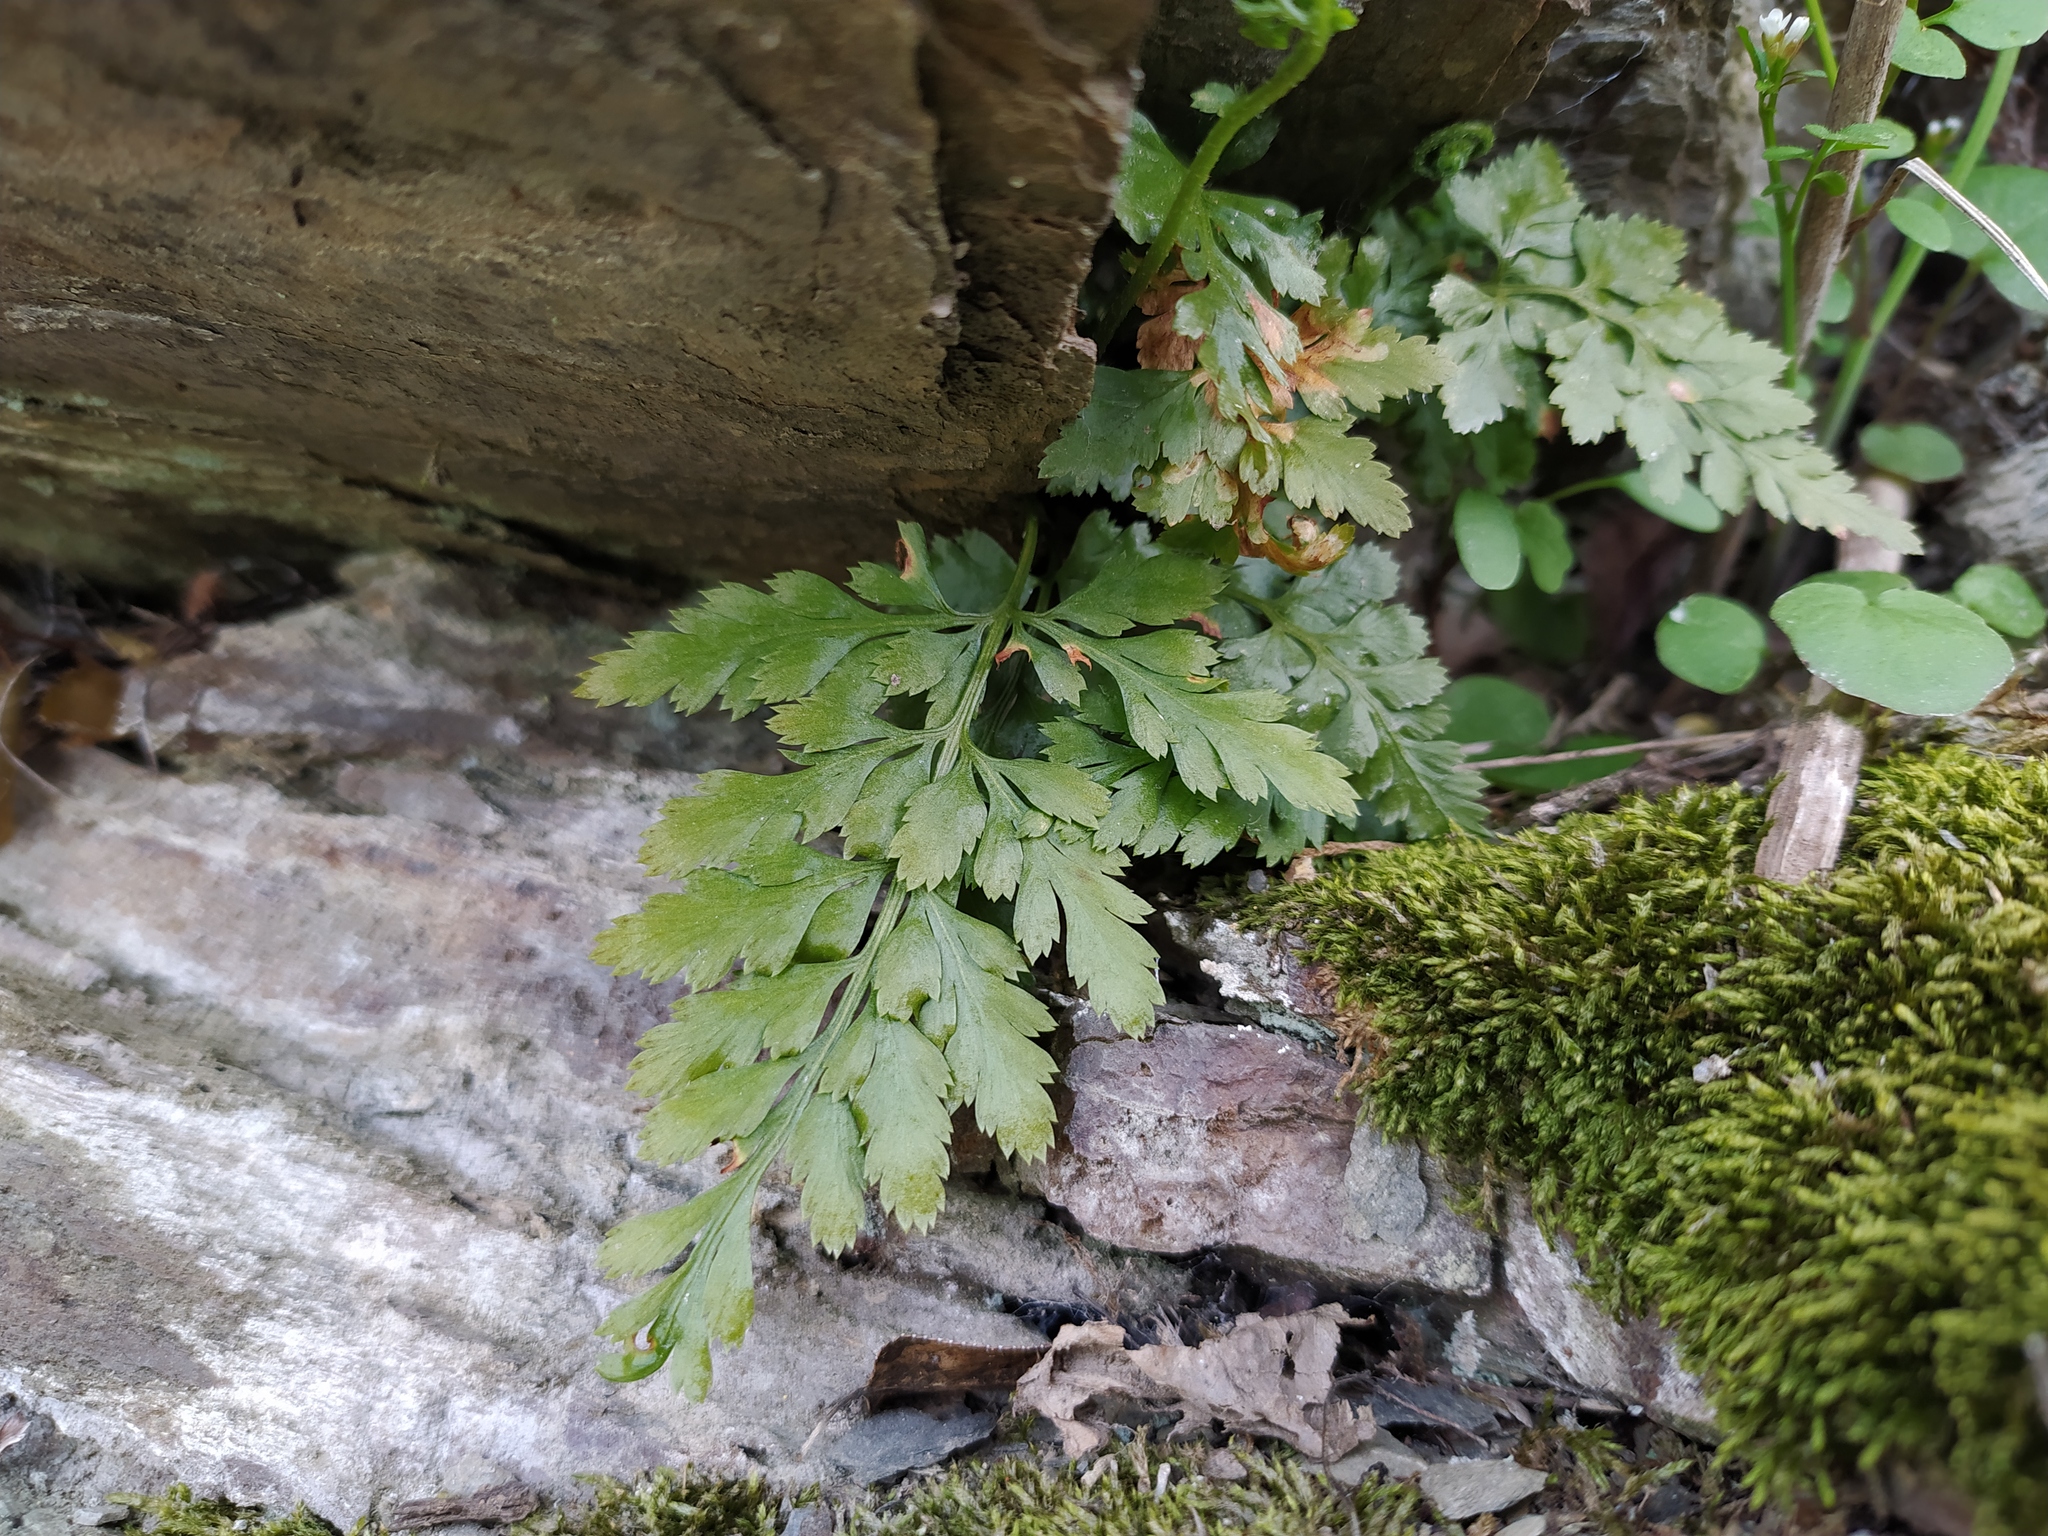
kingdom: Plantae
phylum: Tracheophyta
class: Polypodiopsida
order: Polypodiales
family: Aspleniaceae
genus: Asplenium
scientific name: Asplenium adiantum-nigrum
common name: Black spleenwort
